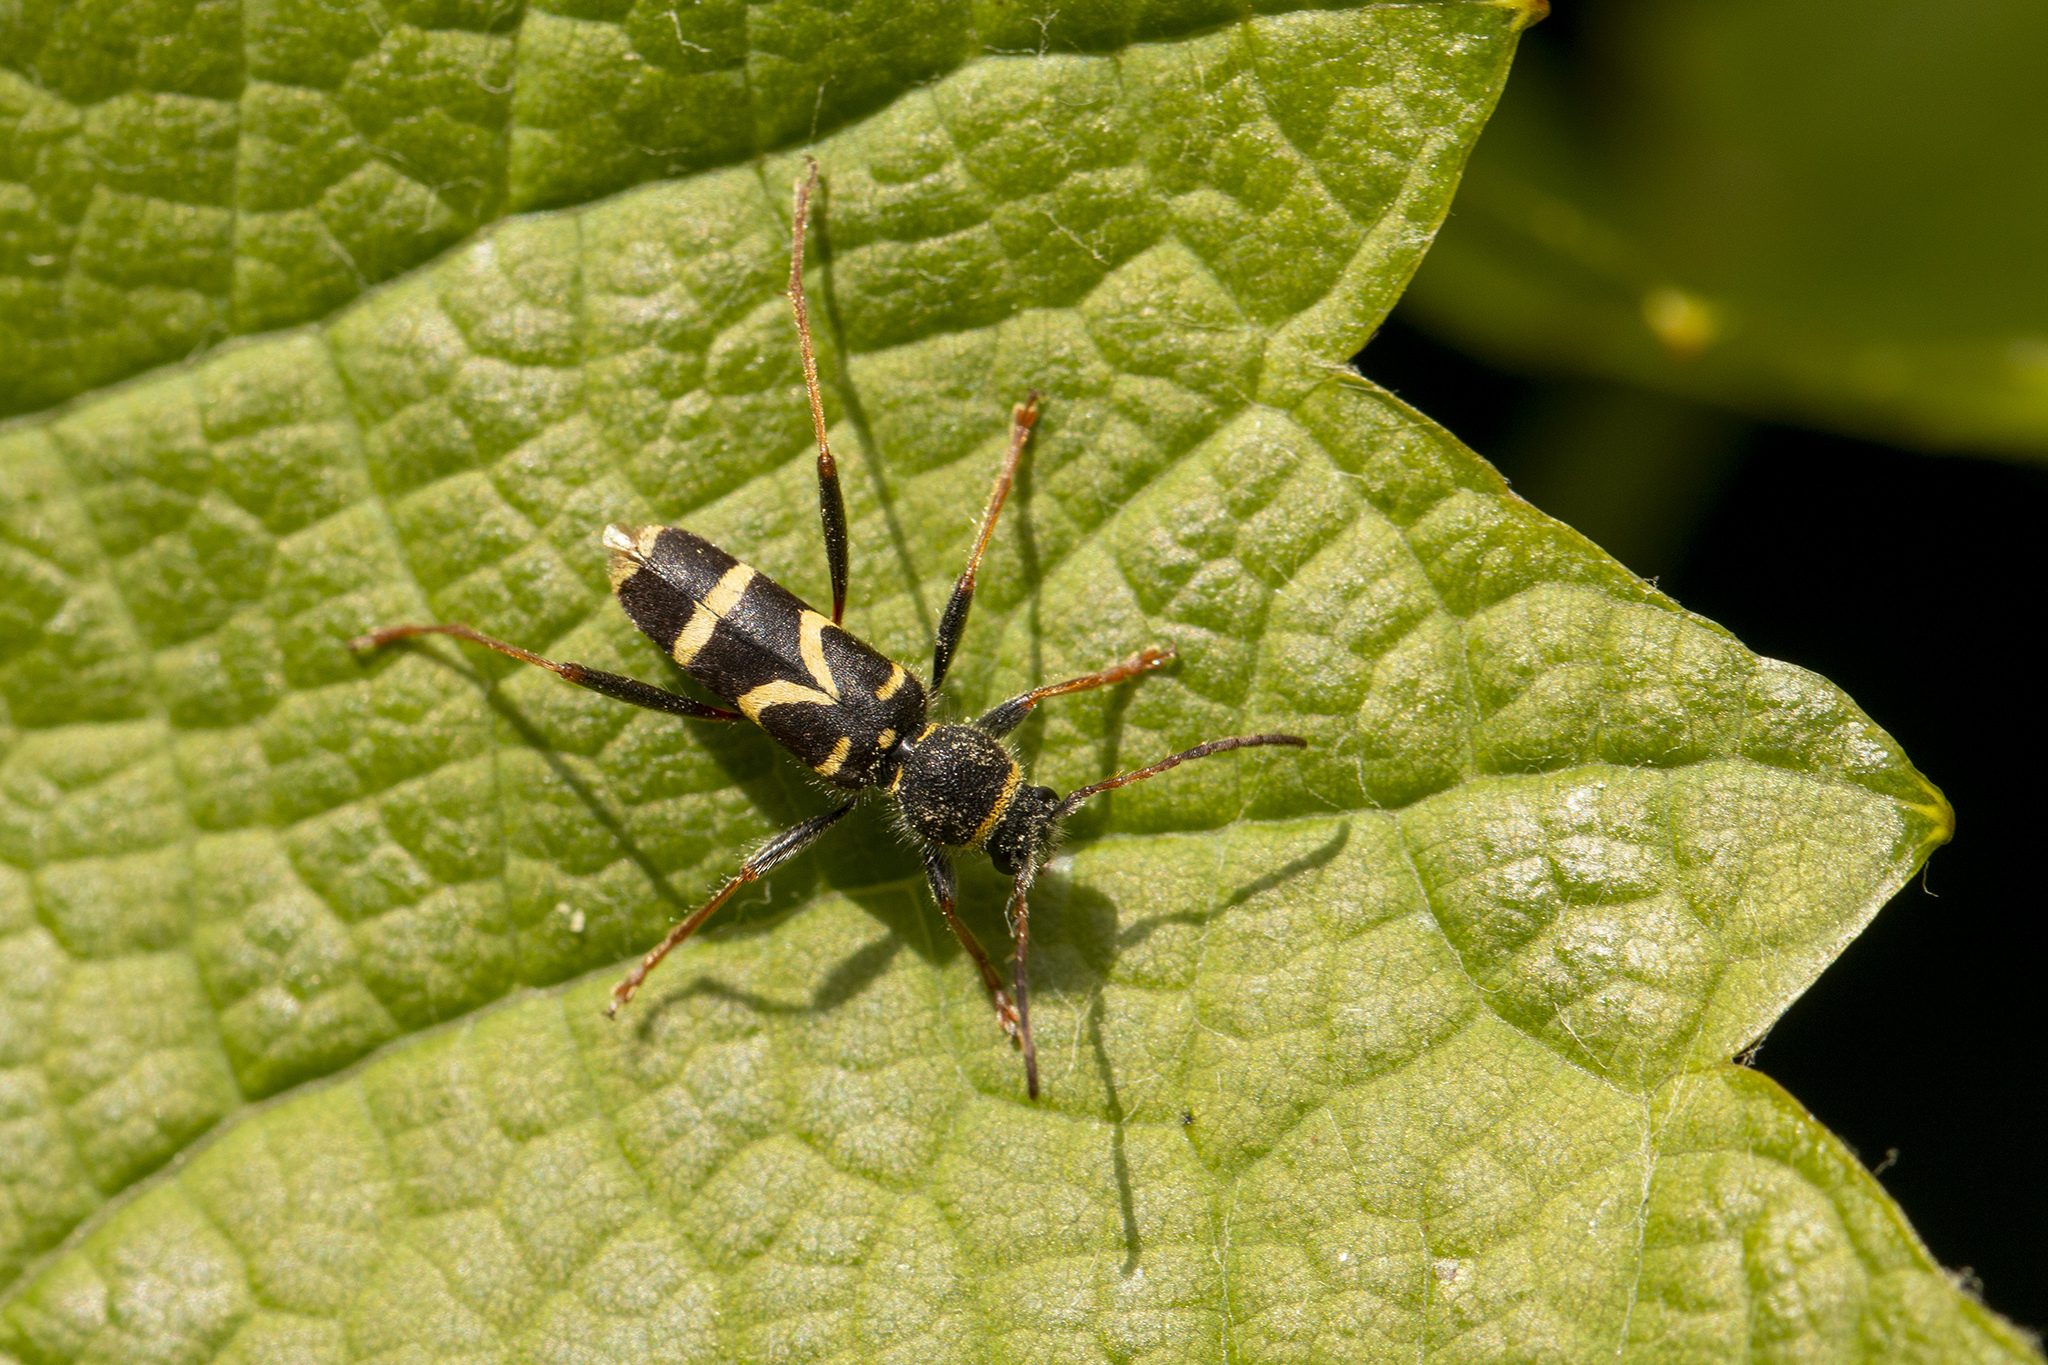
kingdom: Animalia
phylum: Arthropoda
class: Insecta
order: Coleoptera
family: Cerambycidae
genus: Clytus
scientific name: Clytus arietis
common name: Wasp beetle
